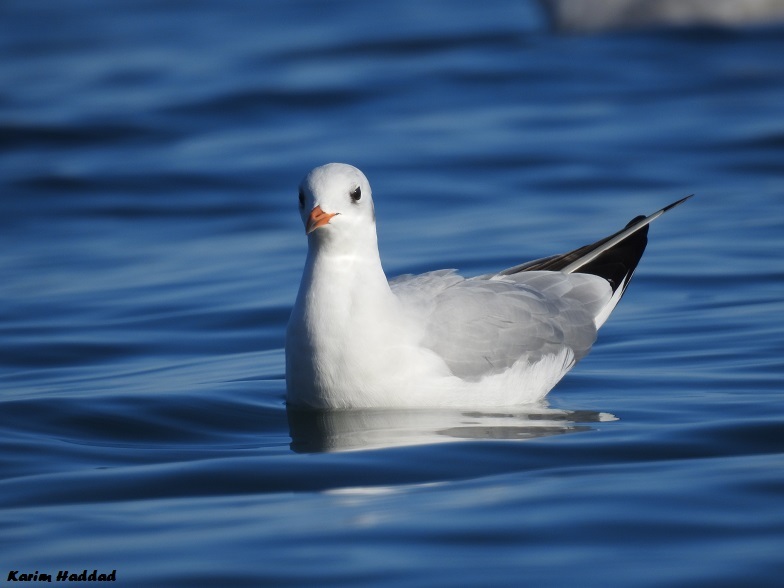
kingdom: Animalia
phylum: Chordata
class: Aves
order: Charadriiformes
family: Laridae
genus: Chroicocephalus
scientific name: Chroicocephalus ridibundus
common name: Black-headed gull
